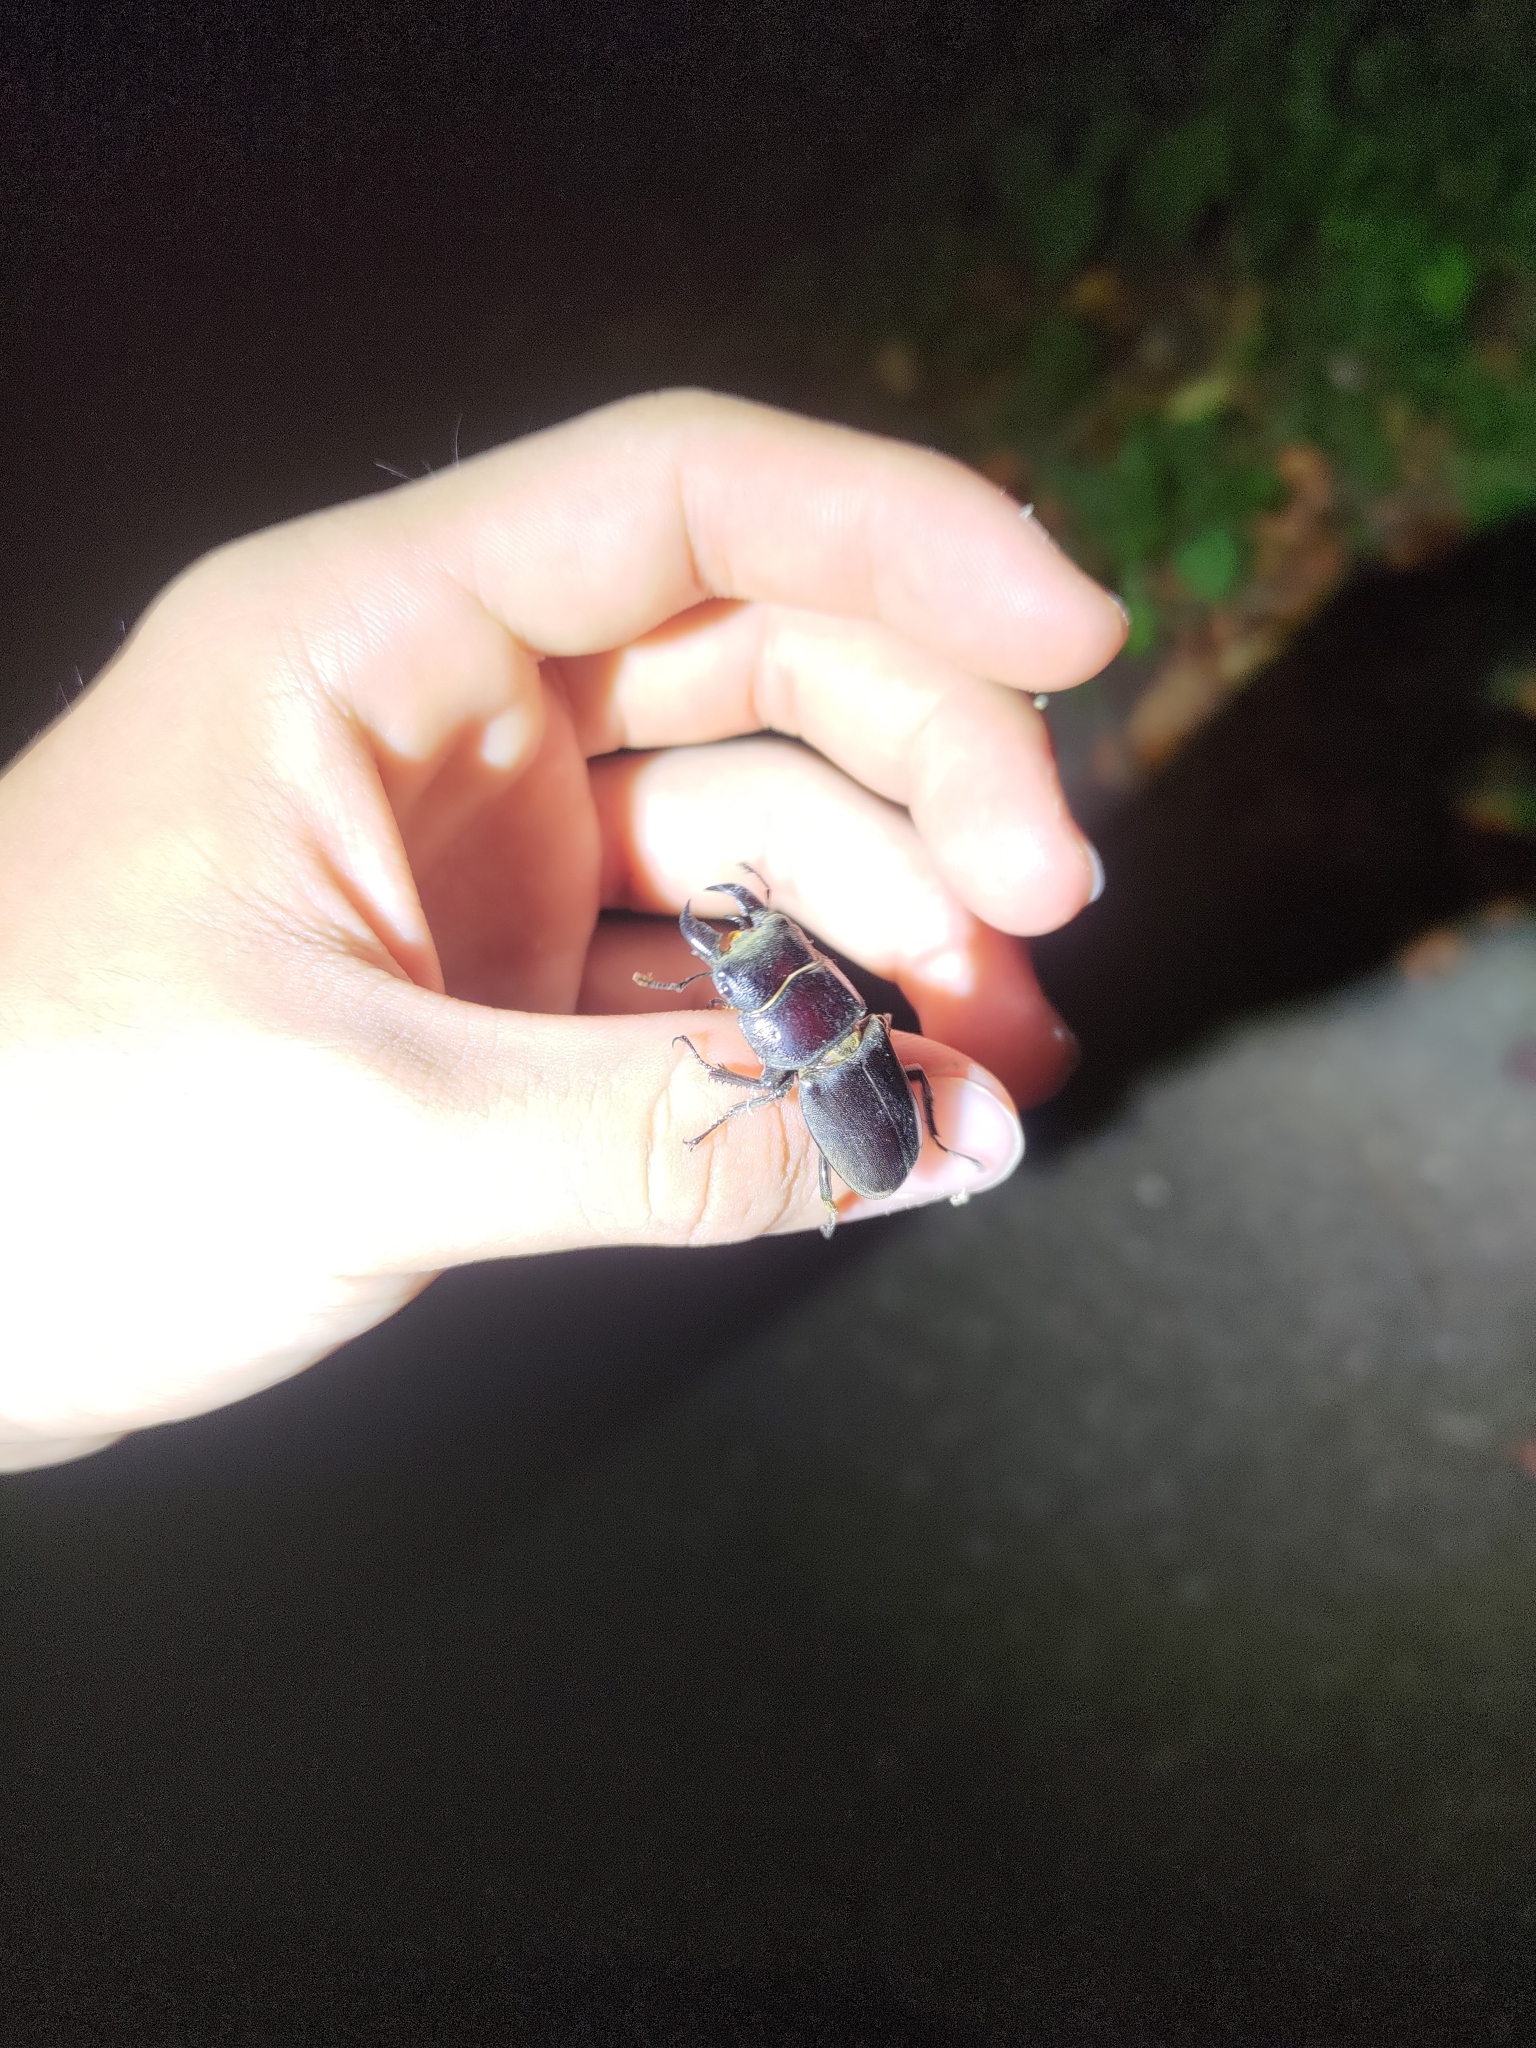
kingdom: Animalia
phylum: Arthropoda
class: Insecta
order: Coleoptera
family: Lucanidae
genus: Serrognathus
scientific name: Serrognathus titanus
